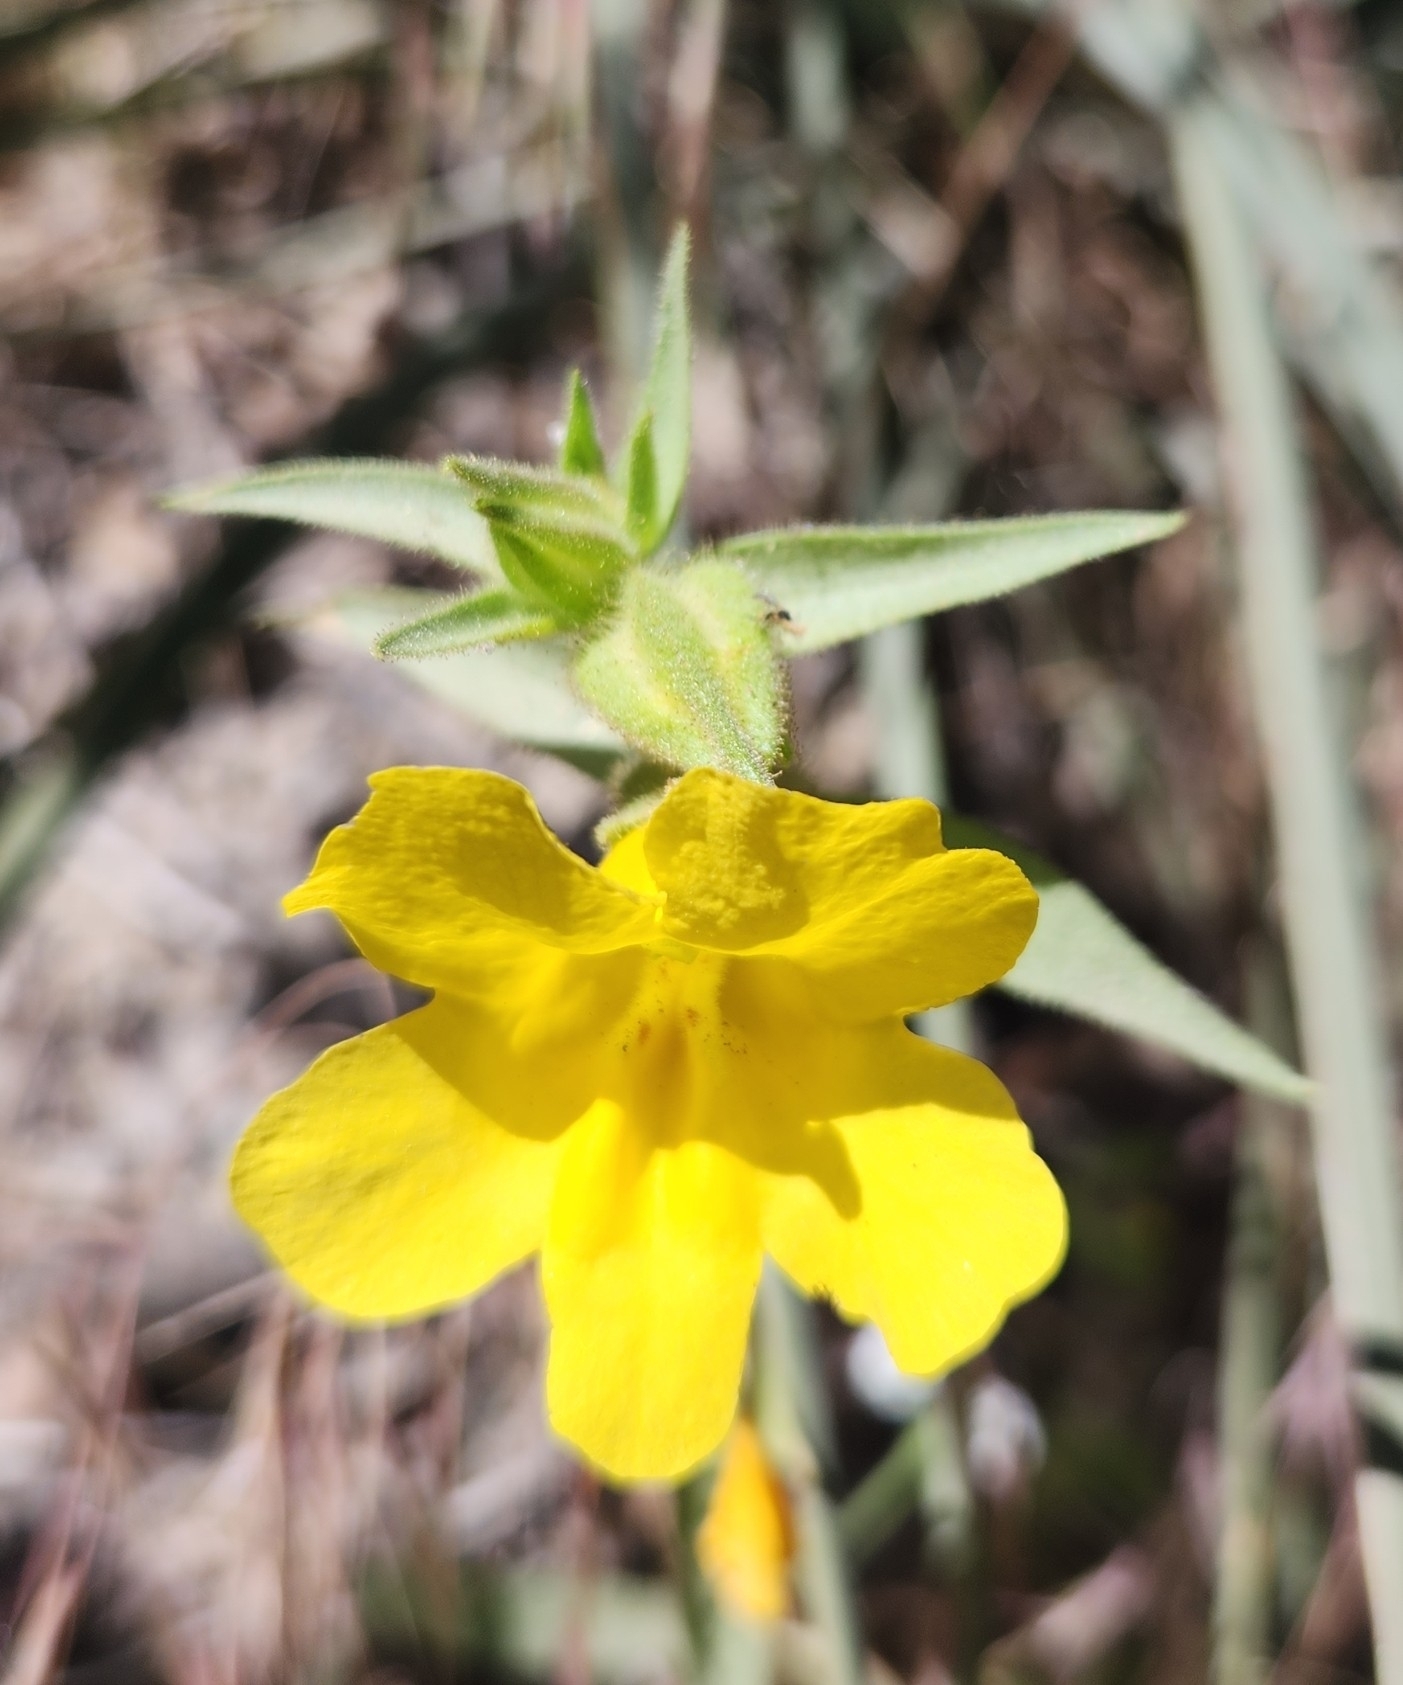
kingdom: Plantae
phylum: Tracheophyta
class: Magnoliopsida
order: Lamiales
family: Phrymaceae
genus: Diplacus
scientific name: Diplacus brevipes
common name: Wide-throat yellow monkey-flower
